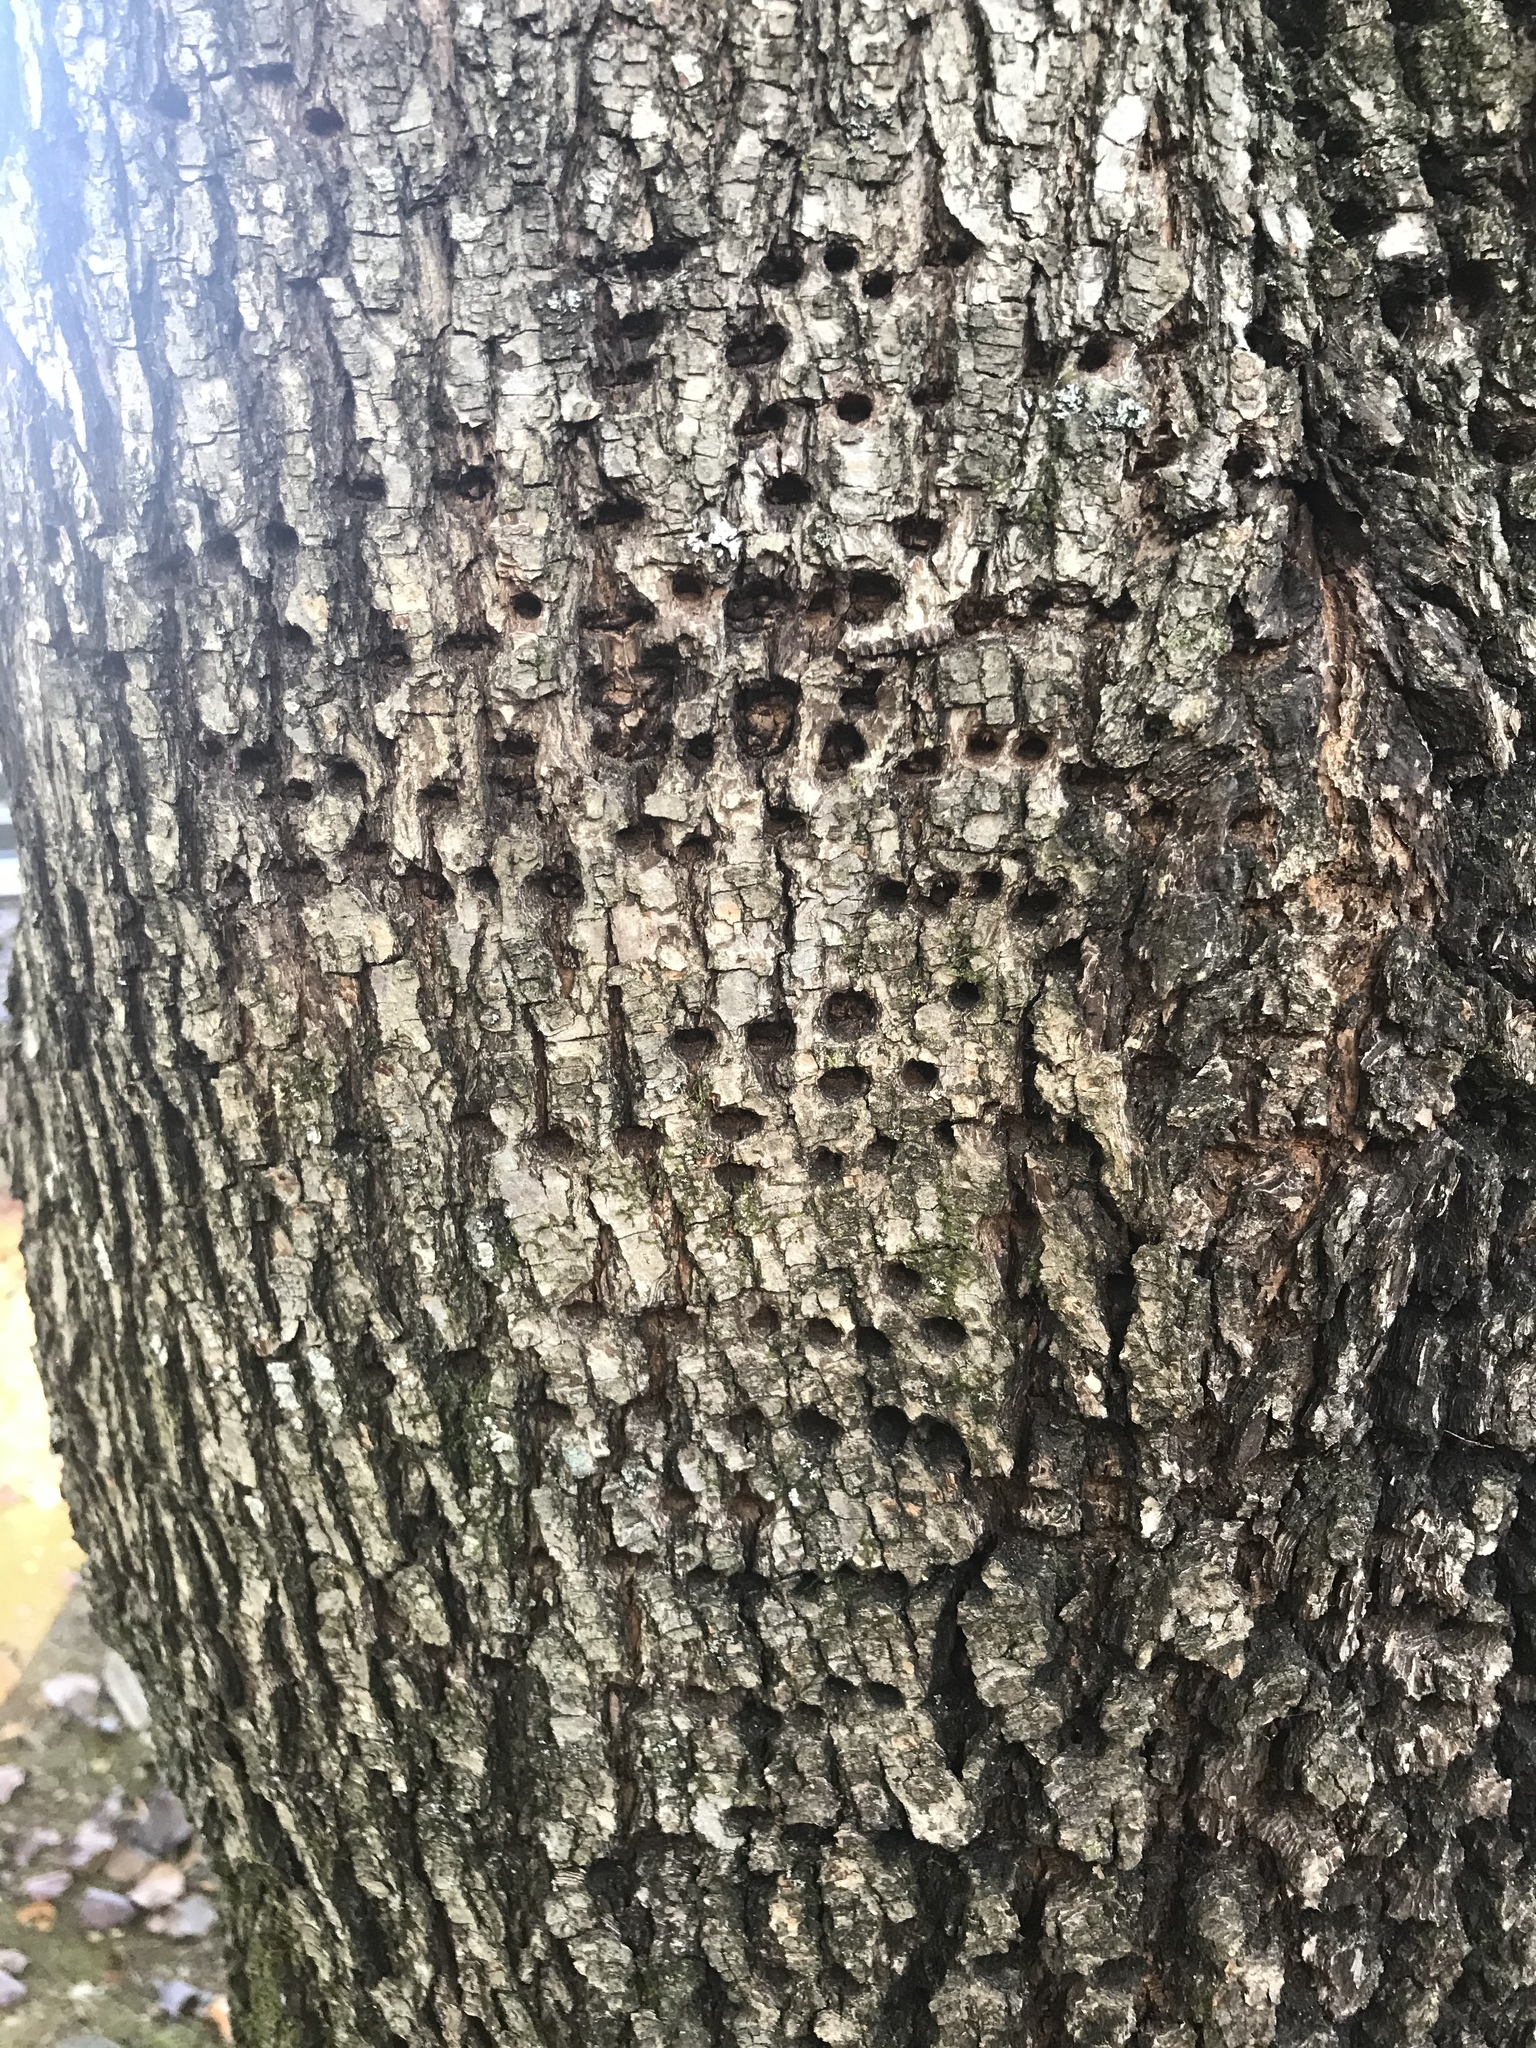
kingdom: Animalia
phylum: Chordata
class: Aves
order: Piciformes
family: Picidae
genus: Sphyrapicus
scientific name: Sphyrapicus varius
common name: Yellow-bellied sapsucker
